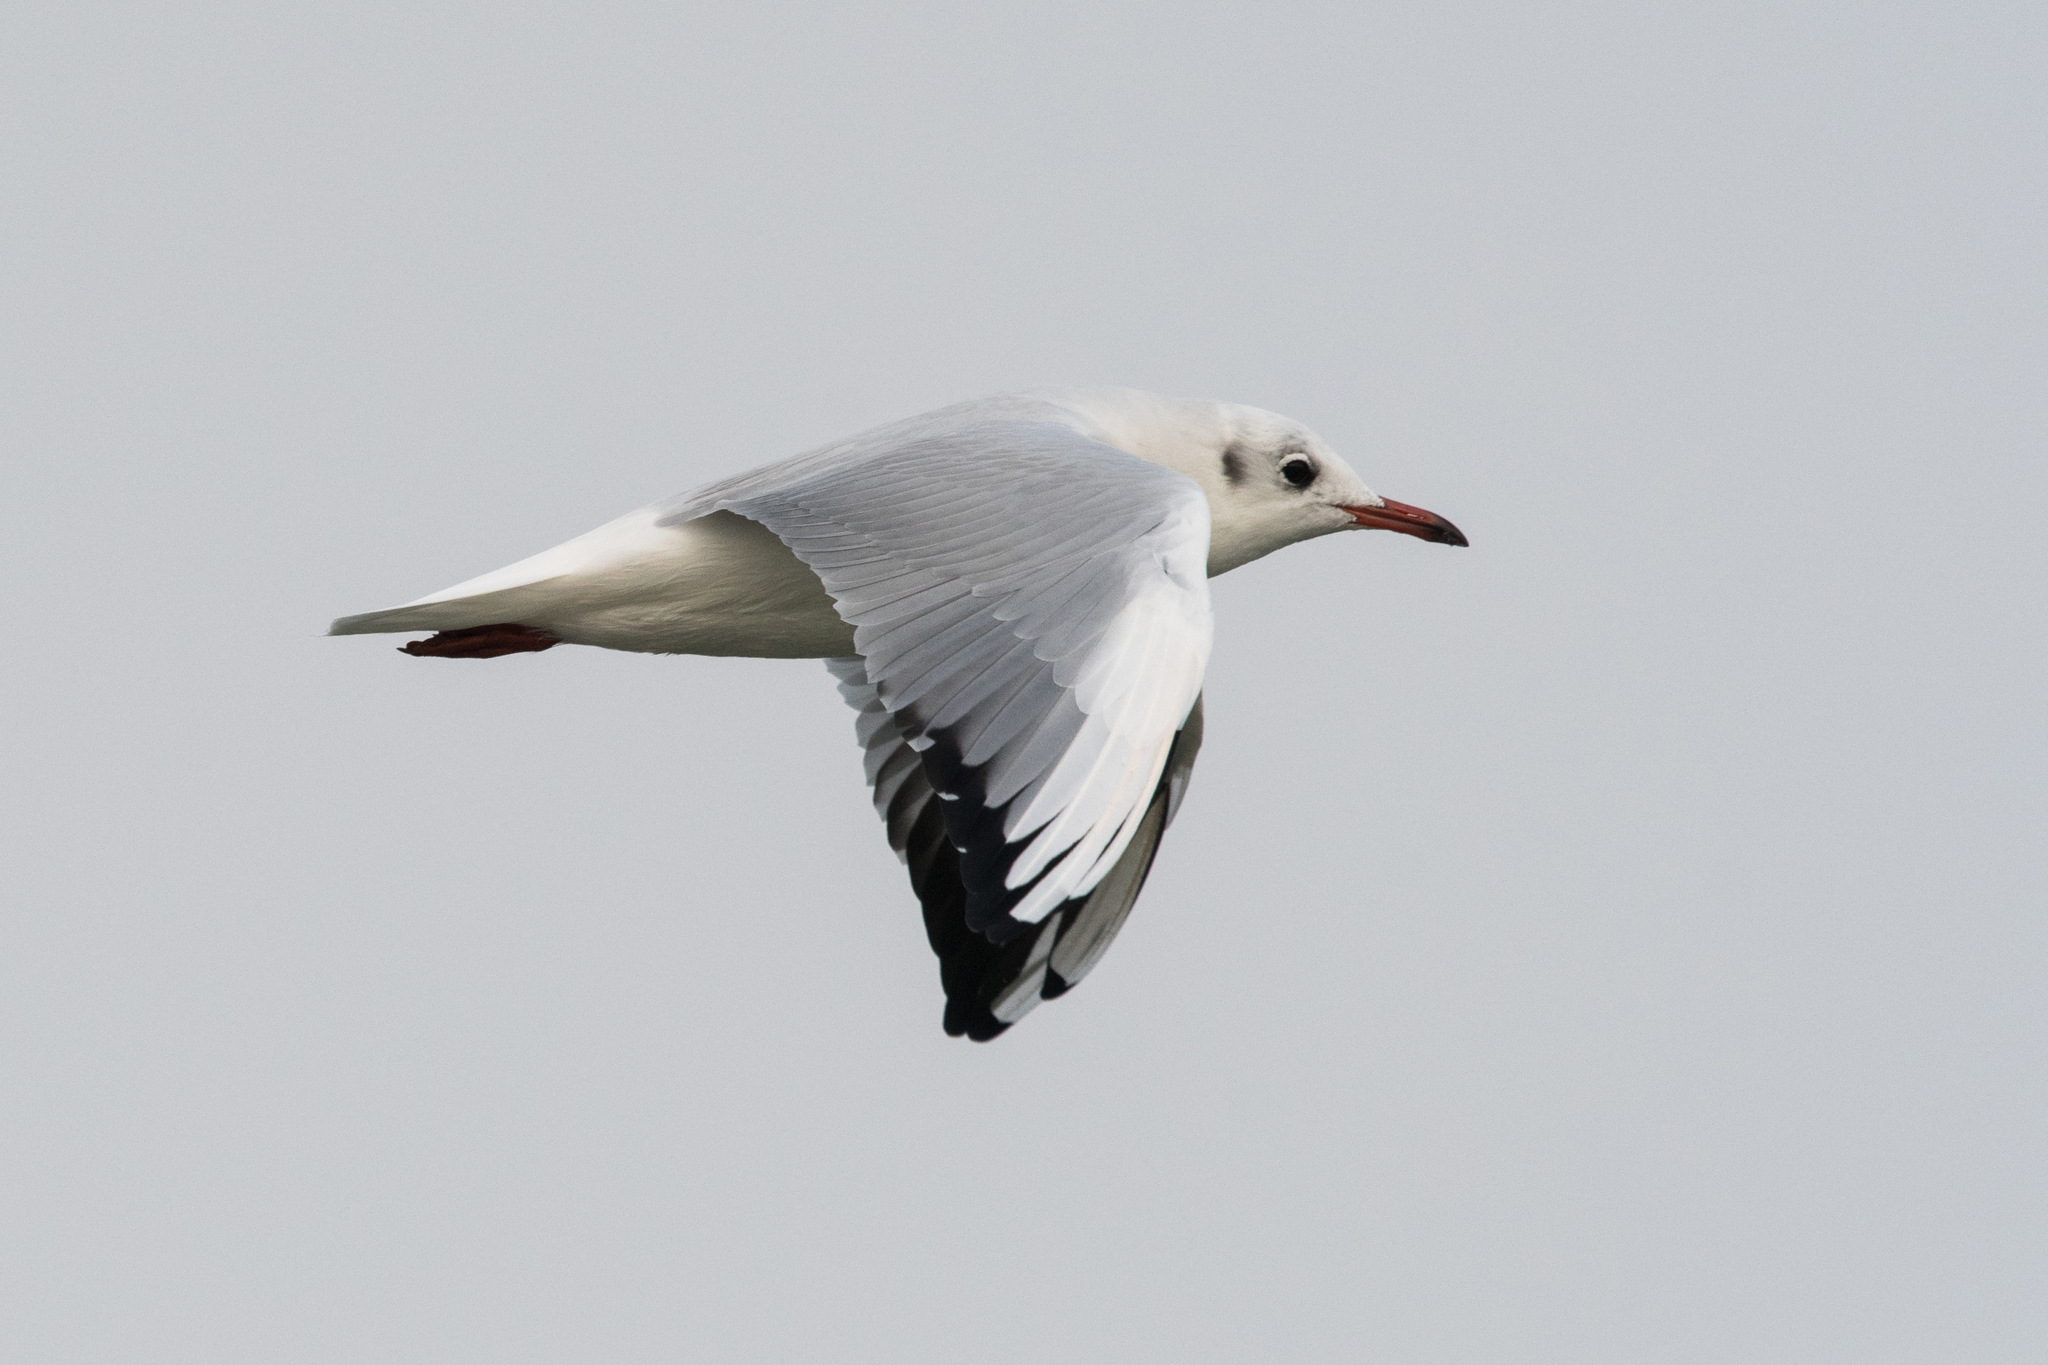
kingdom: Animalia
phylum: Chordata
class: Aves
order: Charadriiformes
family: Laridae
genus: Chroicocephalus
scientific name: Chroicocephalus ridibundus
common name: Black-headed gull
